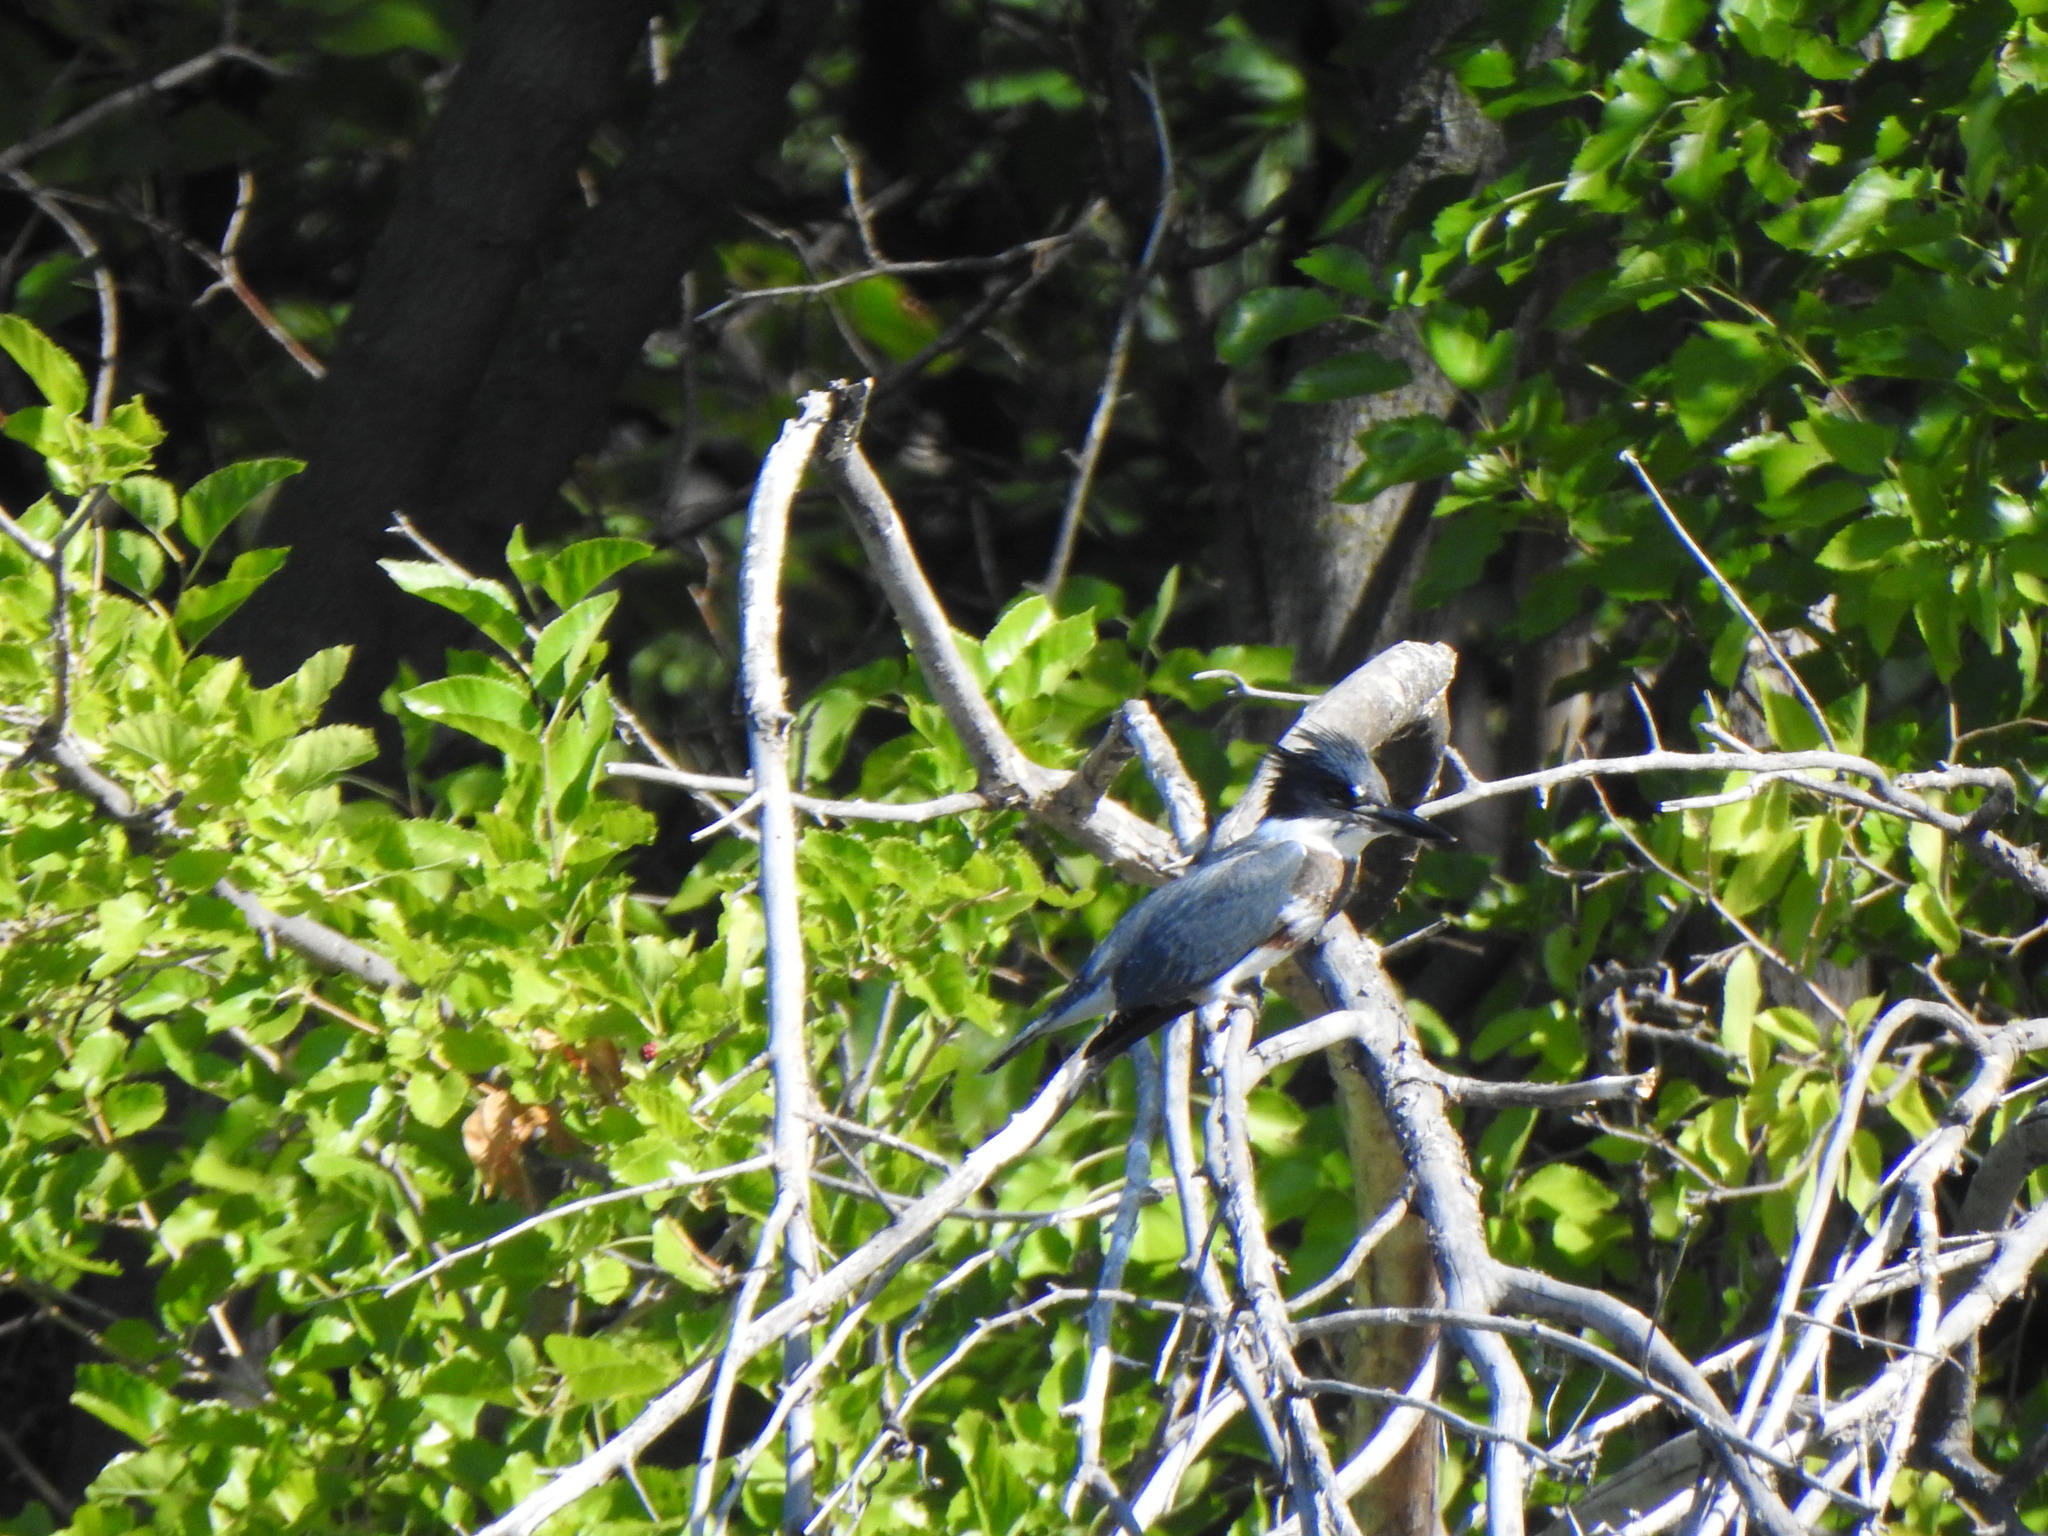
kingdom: Animalia
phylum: Chordata
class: Aves
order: Coraciiformes
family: Alcedinidae
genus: Megaceryle
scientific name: Megaceryle alcyon
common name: Belted kingfisher
